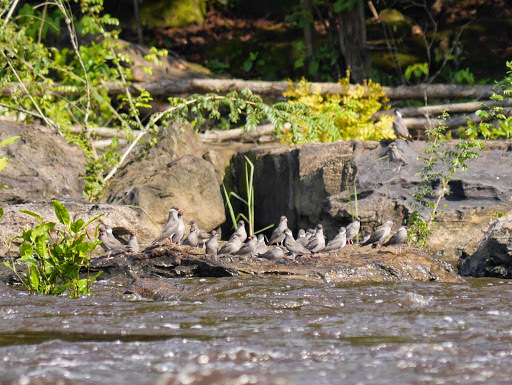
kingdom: Animalia
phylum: Chordata
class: Aves
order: Charadriiformes
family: Glareolidae
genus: Glareola
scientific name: Glareola nuchalis
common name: Rock pratincole
